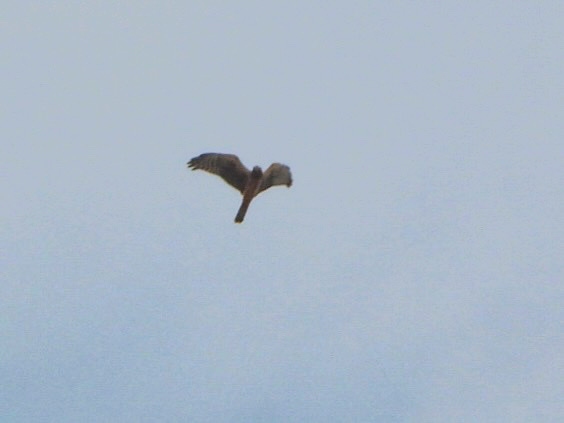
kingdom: Animalia
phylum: Chordata
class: Aves
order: Accipitriformes
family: Accipitridae
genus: Circus
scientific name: Circus cyaneus
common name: Hen harrier
